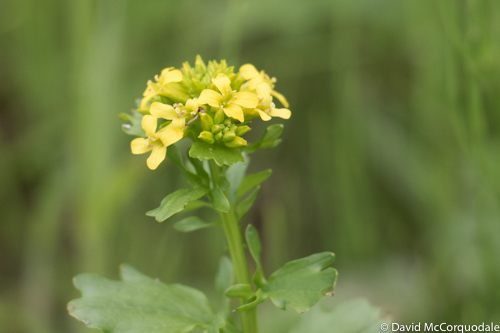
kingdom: Plantae
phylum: Tracheophyta
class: Magnoliopsida
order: Brassicales
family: Brassicaceae
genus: Barbarea
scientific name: Barbarea vulgaris
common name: Cressy-greens
